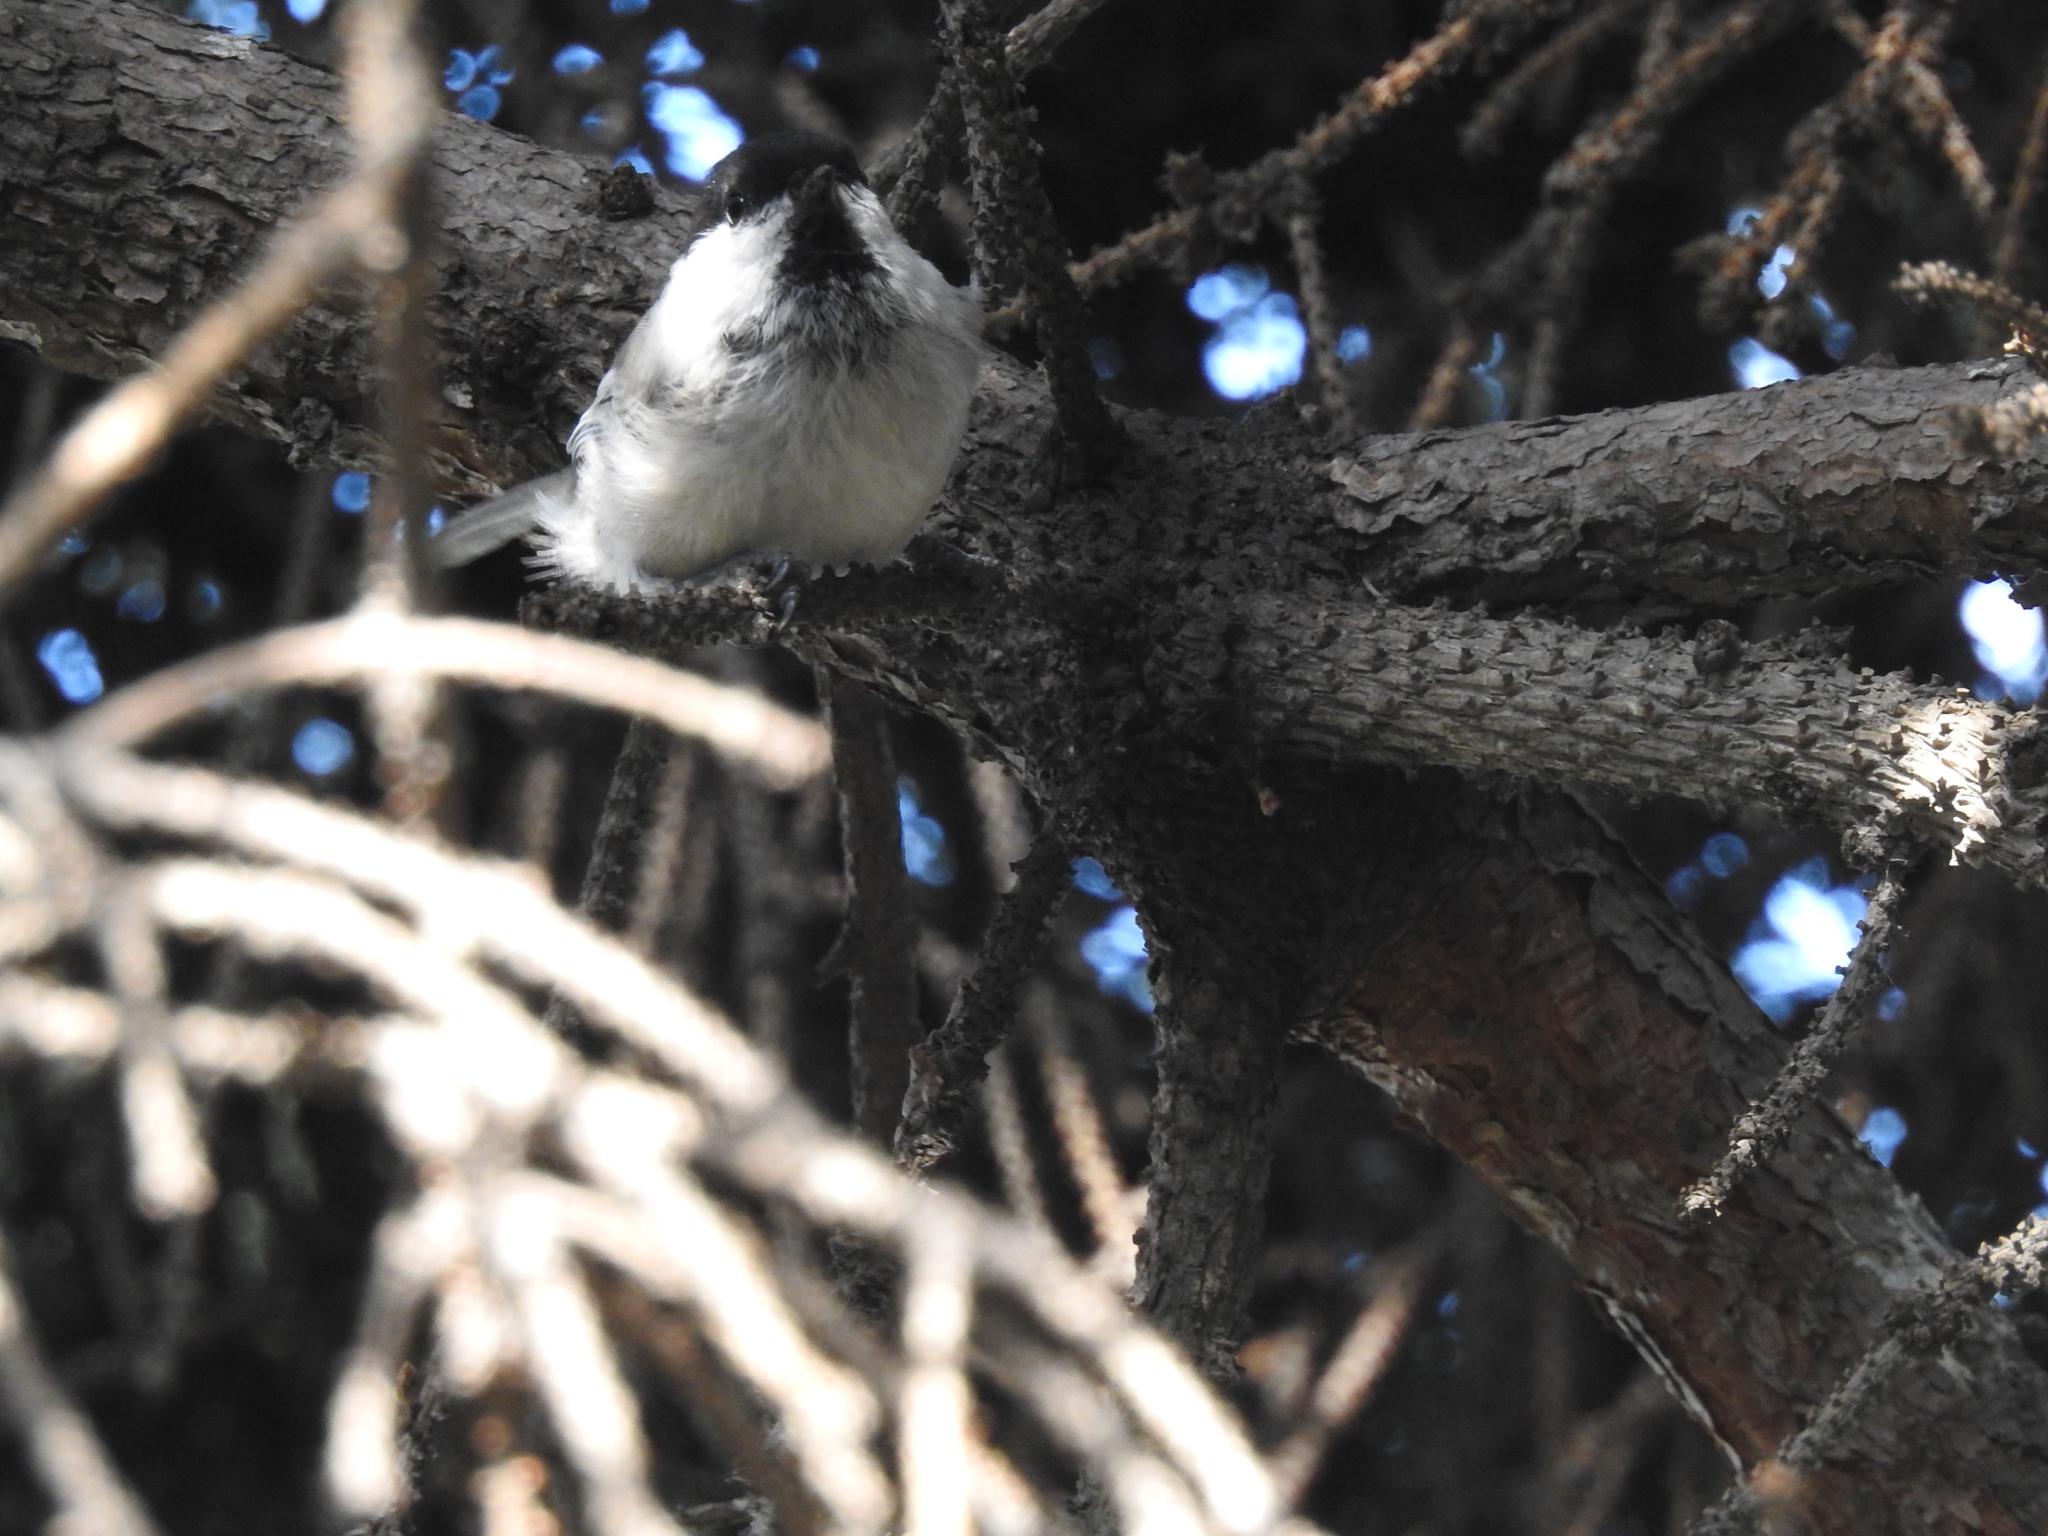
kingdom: Animalia
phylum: Chordata
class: Aves
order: Passeriformes
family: Paridae
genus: Poecile
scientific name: Poecile montanus
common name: Willow tit
